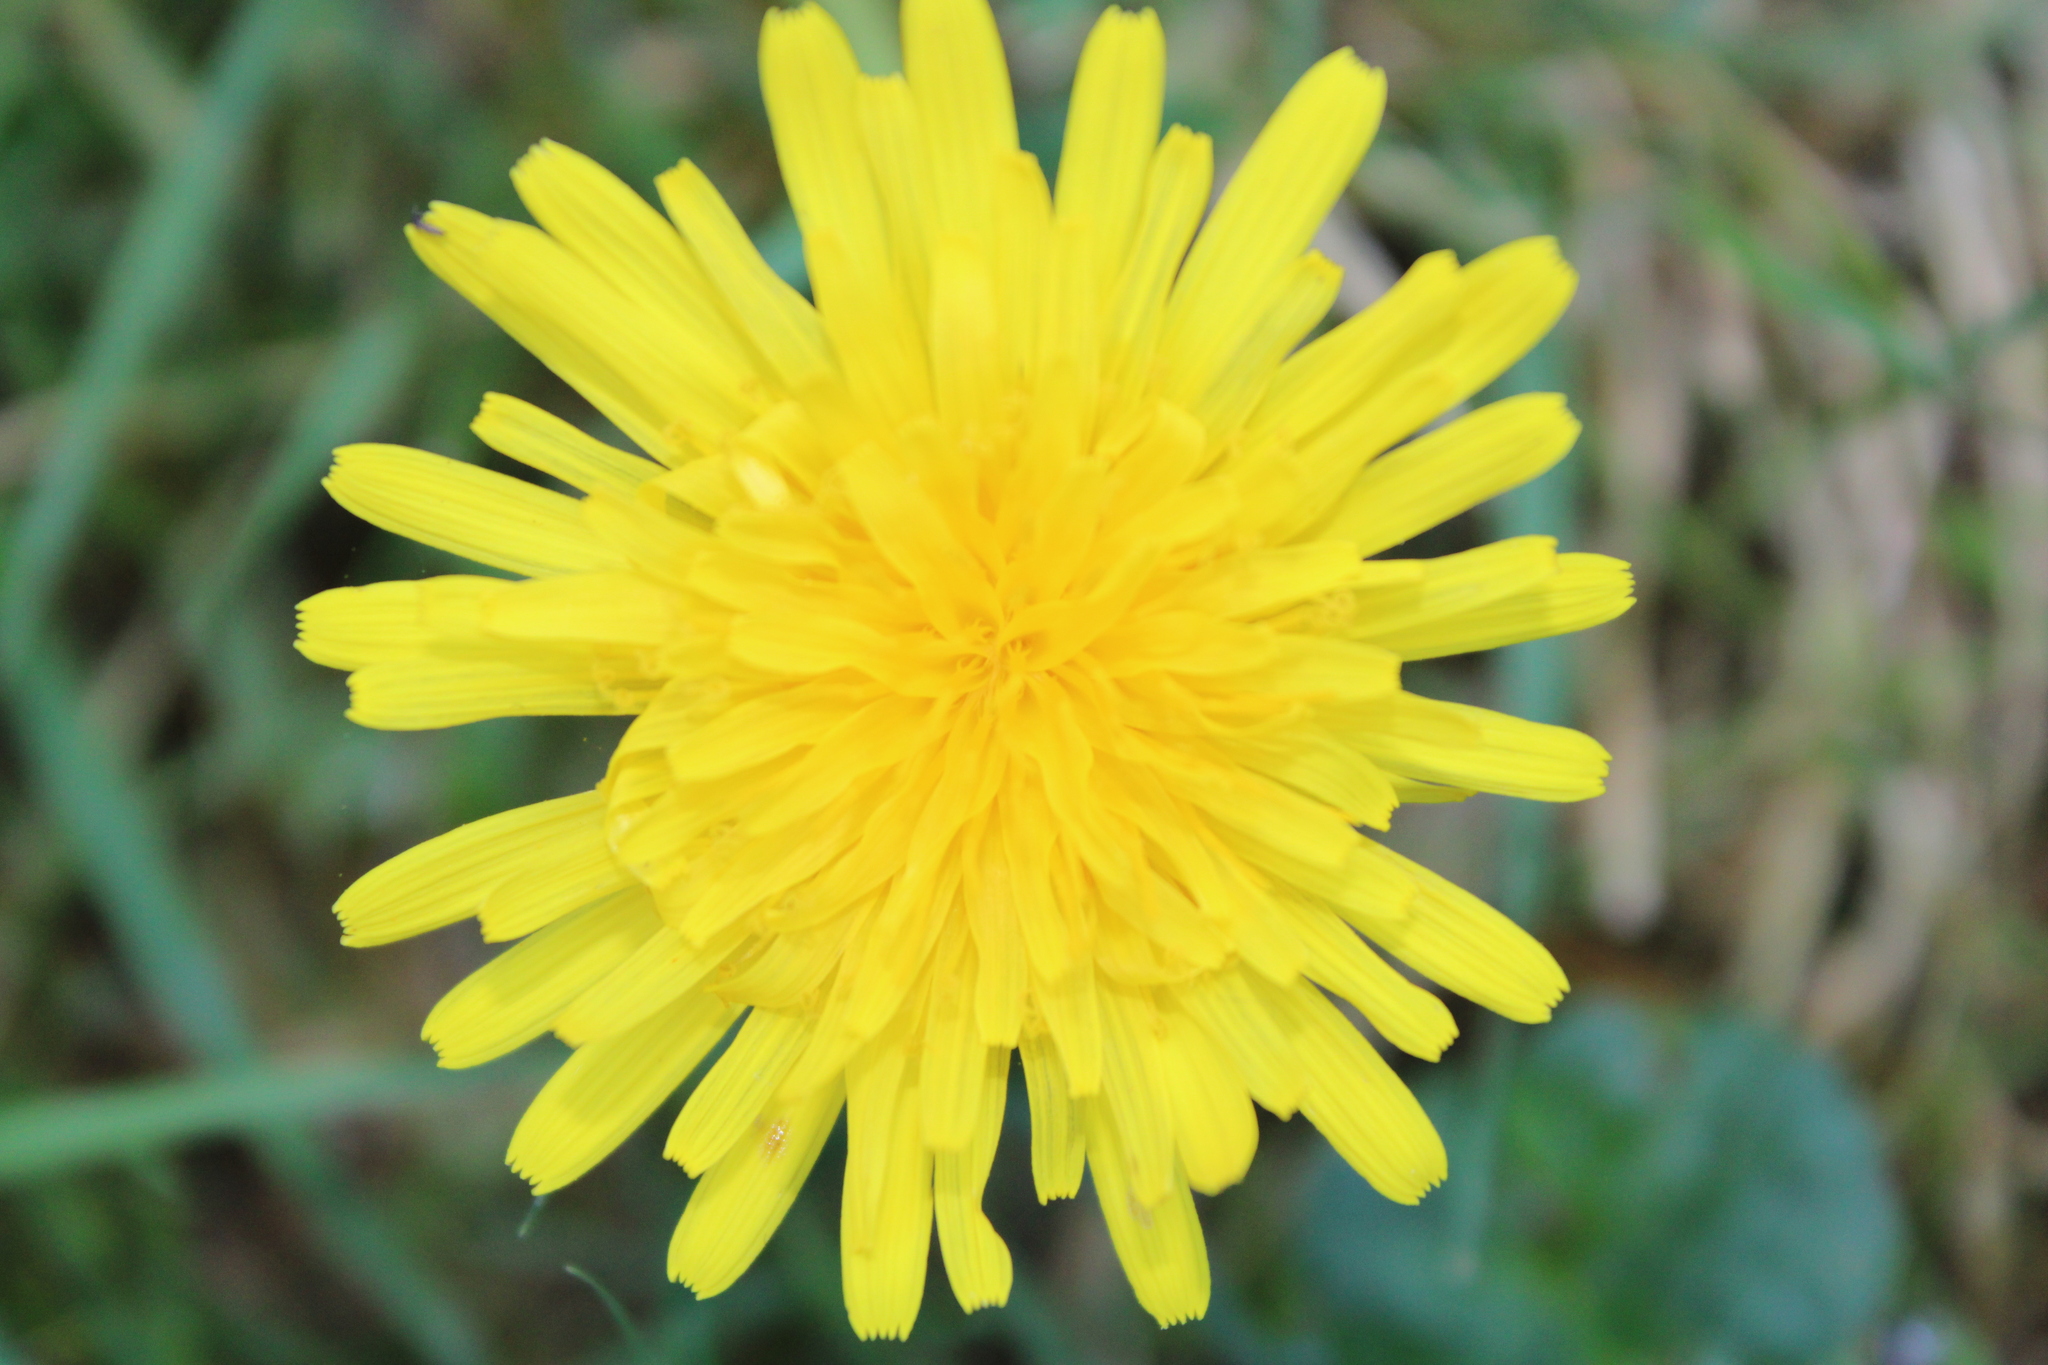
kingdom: Plantae
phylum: Tracheophyta
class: Magnoliopsida
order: Asterales
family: Asteraceae
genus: Taraxacum
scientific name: Taraxacum officinale
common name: Common dandelion
